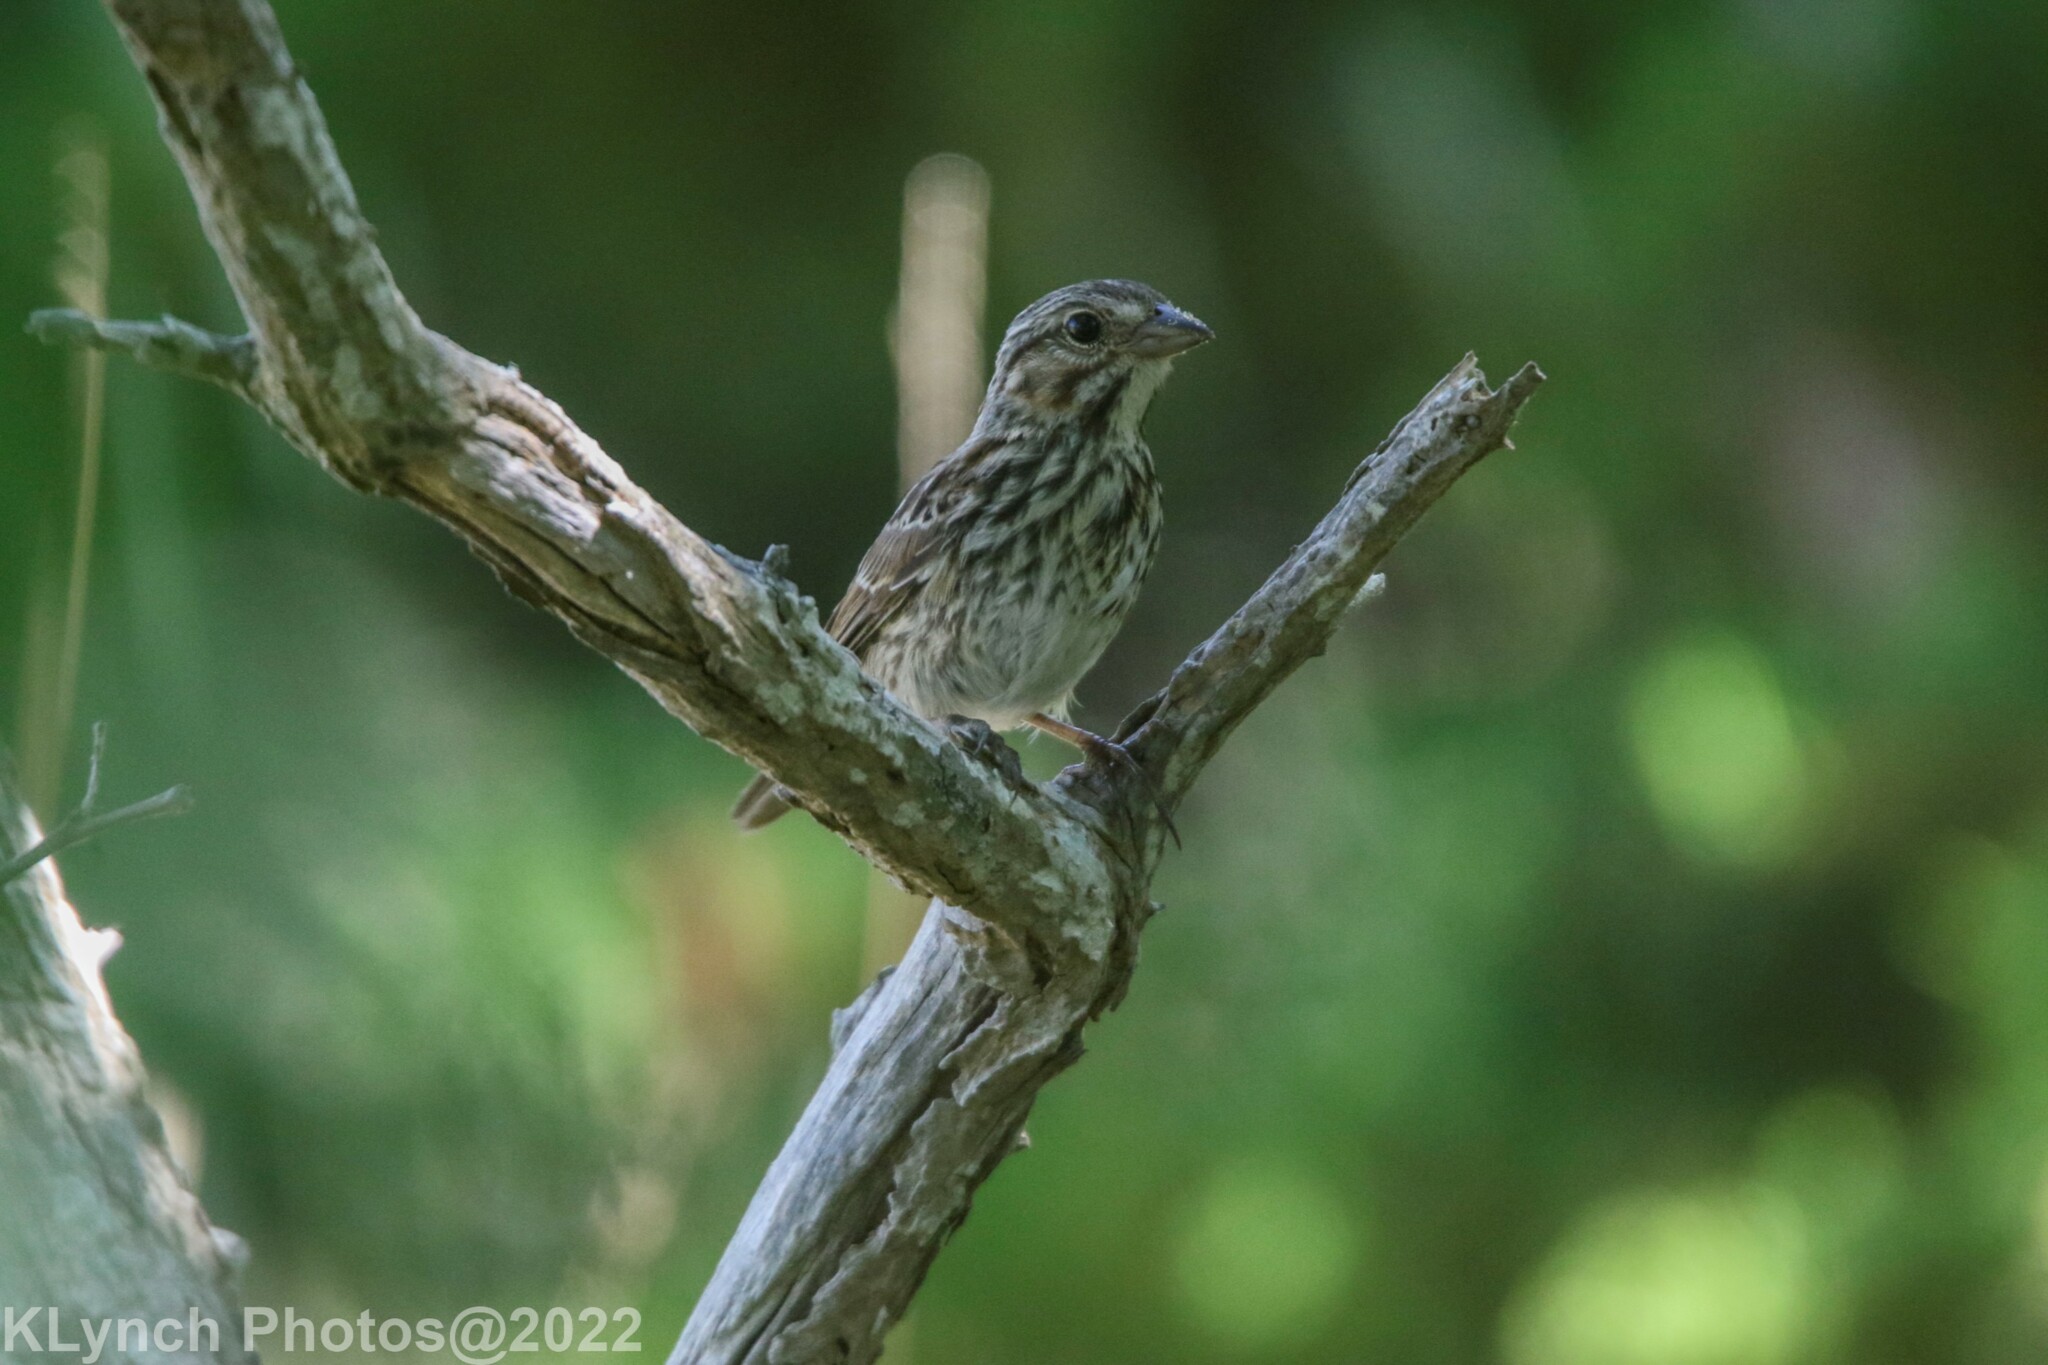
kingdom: Animalia
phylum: Chordata
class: Aves
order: Passeriformes
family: Passerellidae
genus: Melospiza
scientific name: Melospiza melodia
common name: Song sparrow
